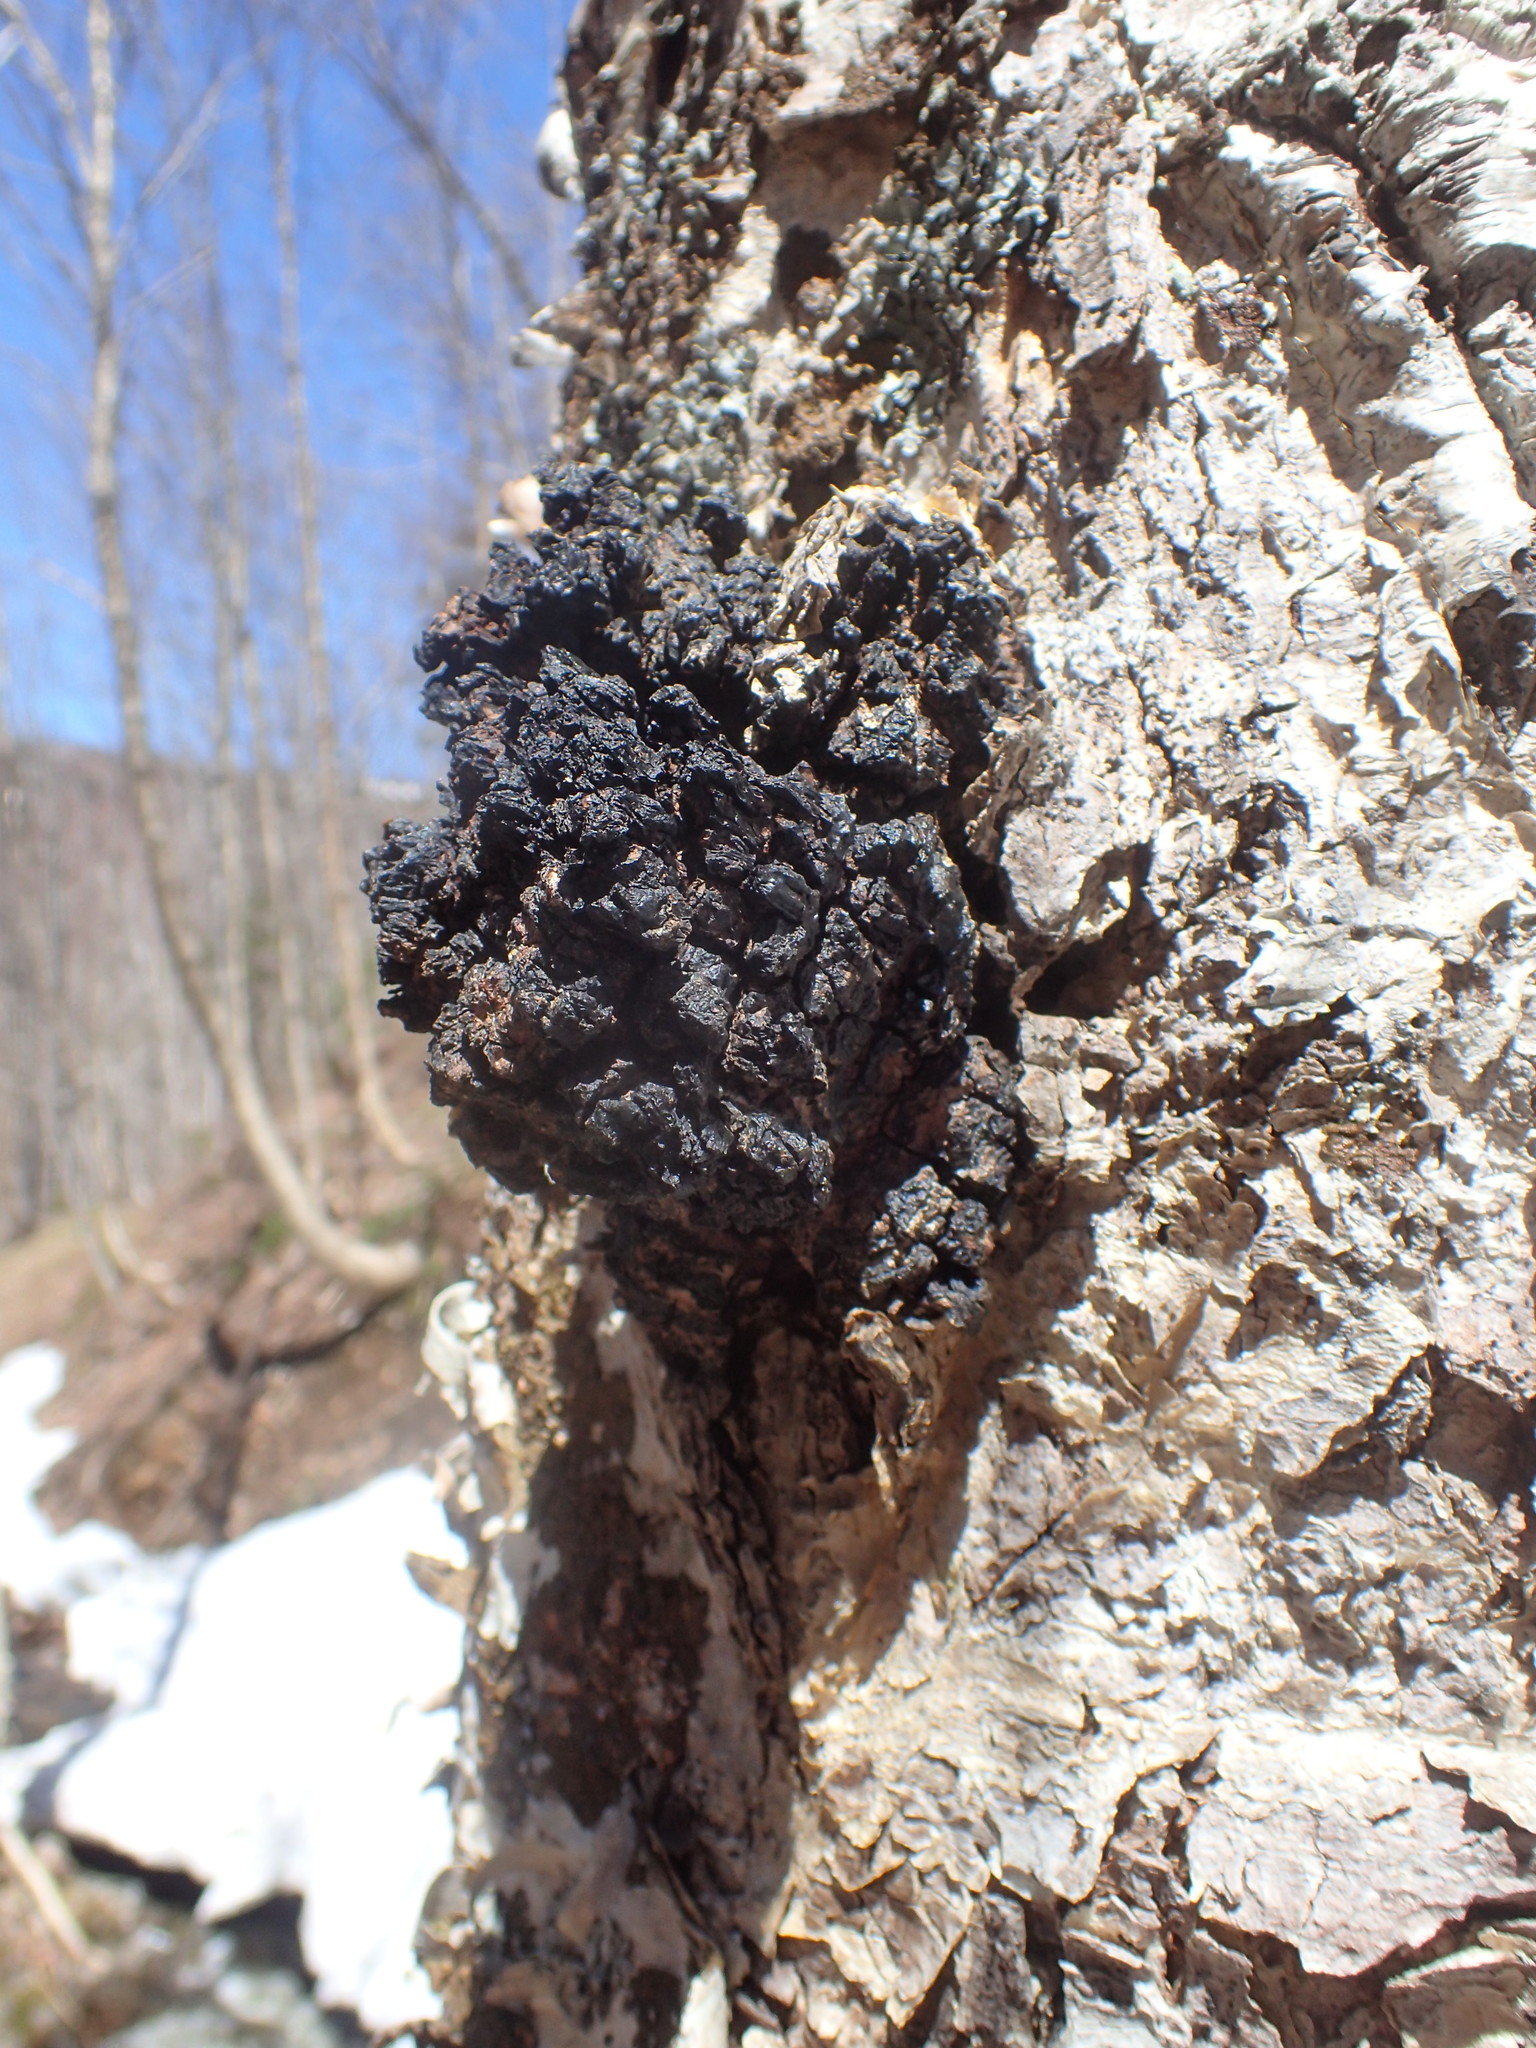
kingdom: Fungi
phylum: Basidiomycota
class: Agaricomycetes
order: Hymenochaetales
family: Hymenochaetaceae
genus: Inonotus
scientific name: Inonotus obliquus
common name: Chaga
